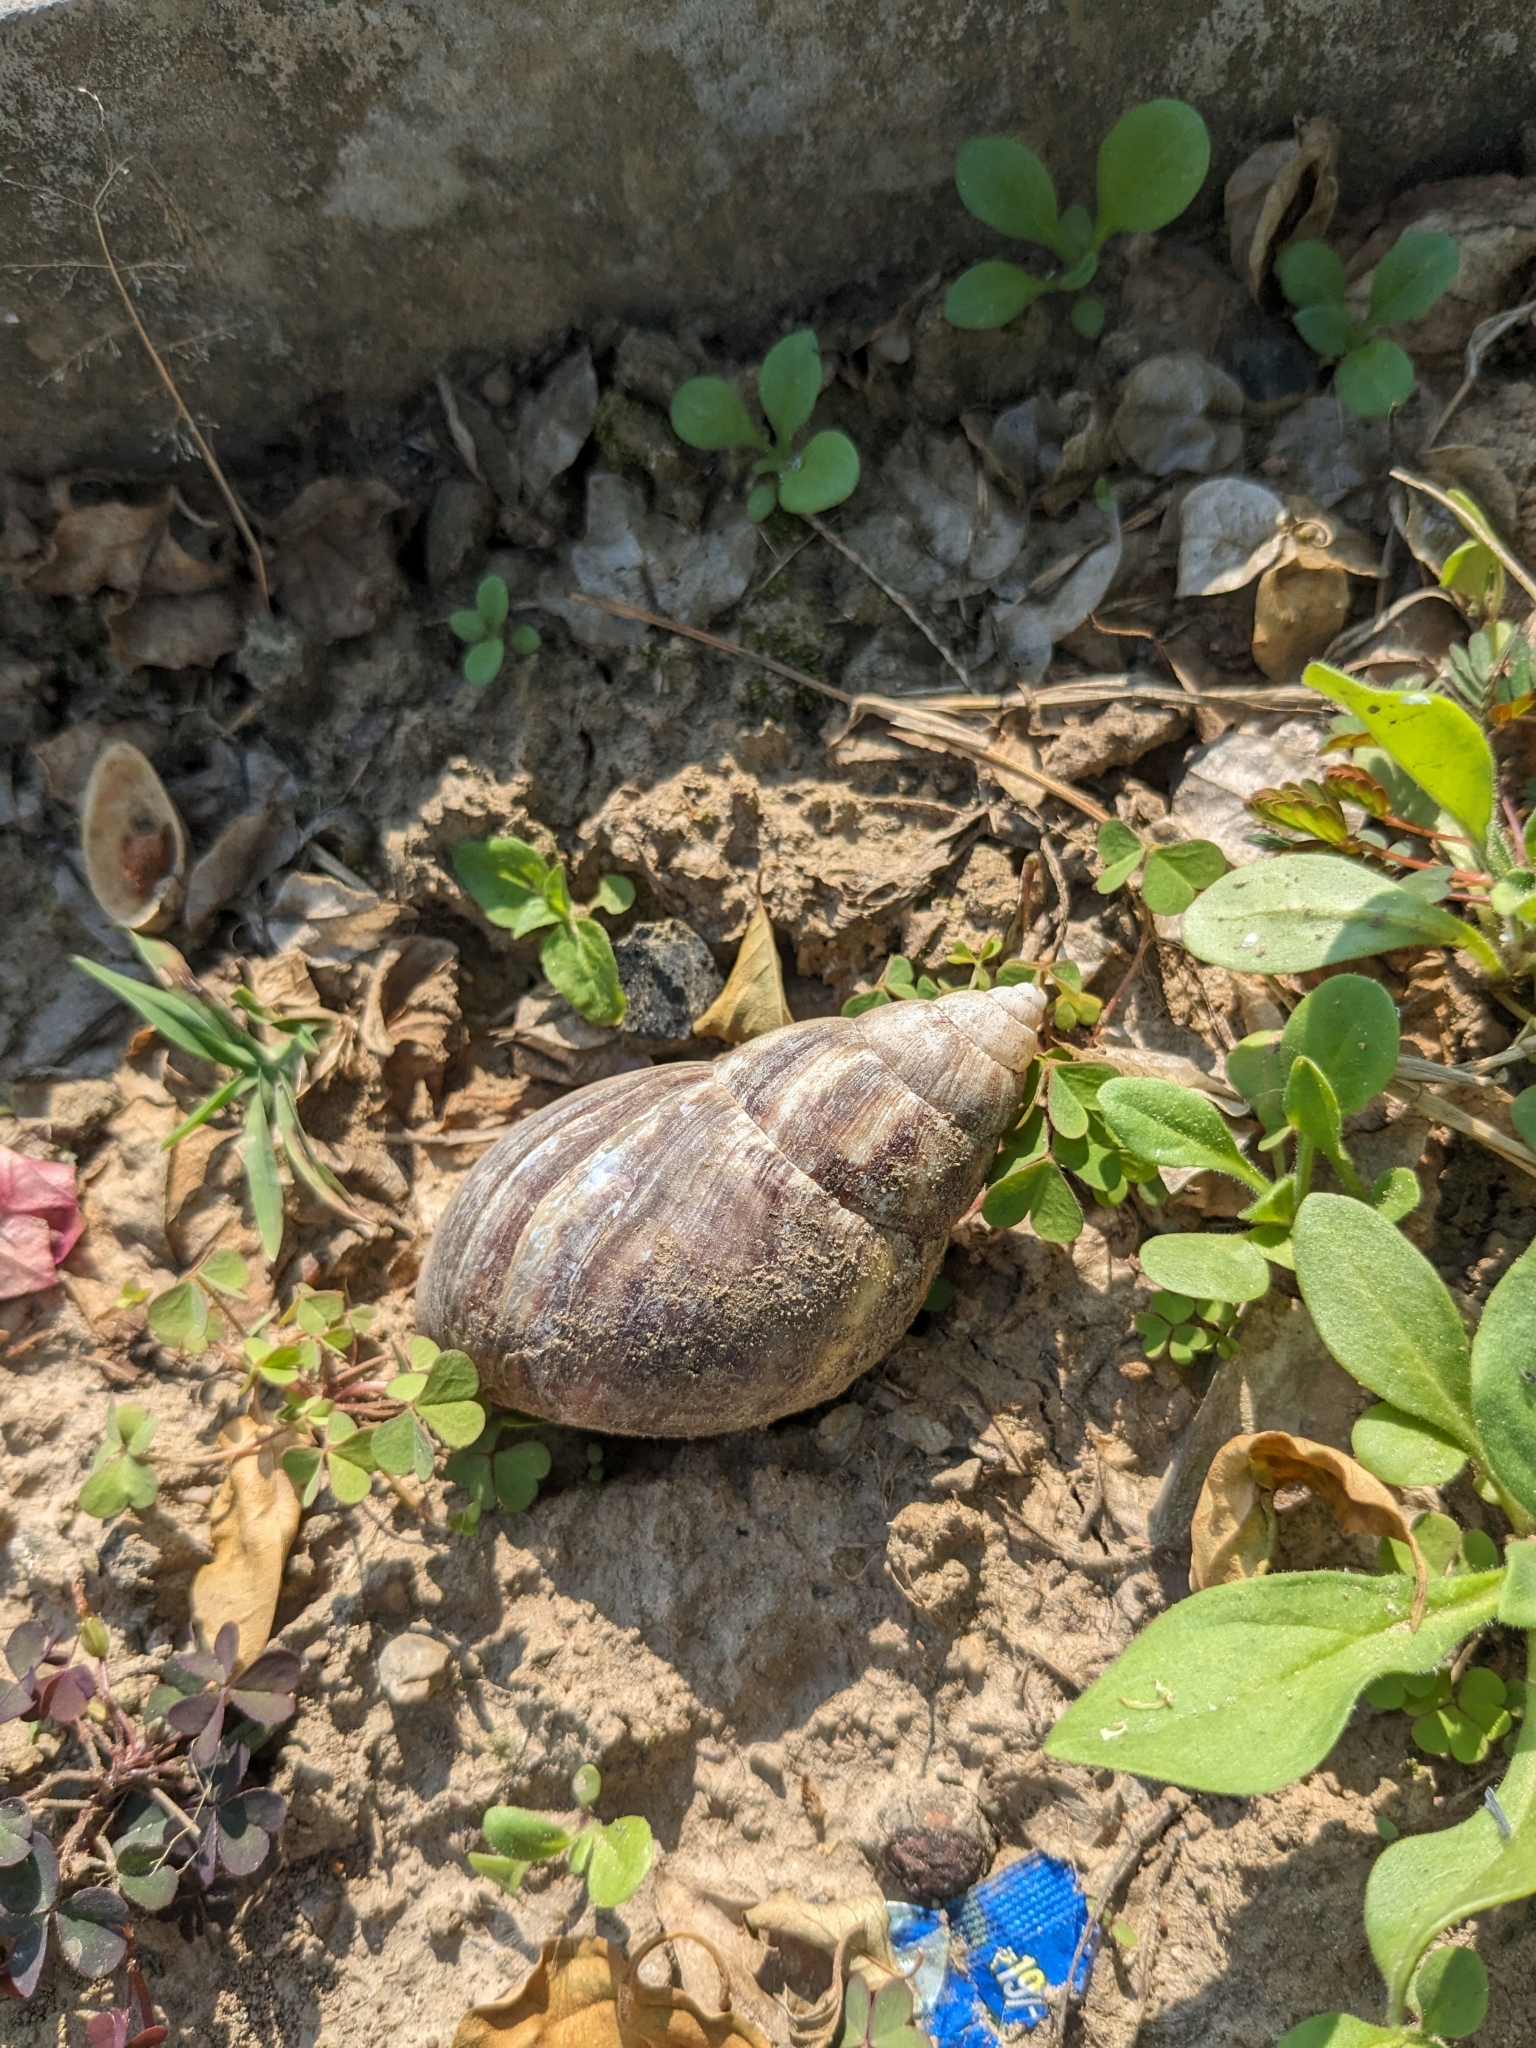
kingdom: Animalia
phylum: Mollusca
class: Gastropoda
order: Stylommatophora
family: Achatinidae
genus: Lissachatina
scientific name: Lissachatina fulica
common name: Giant african snail
